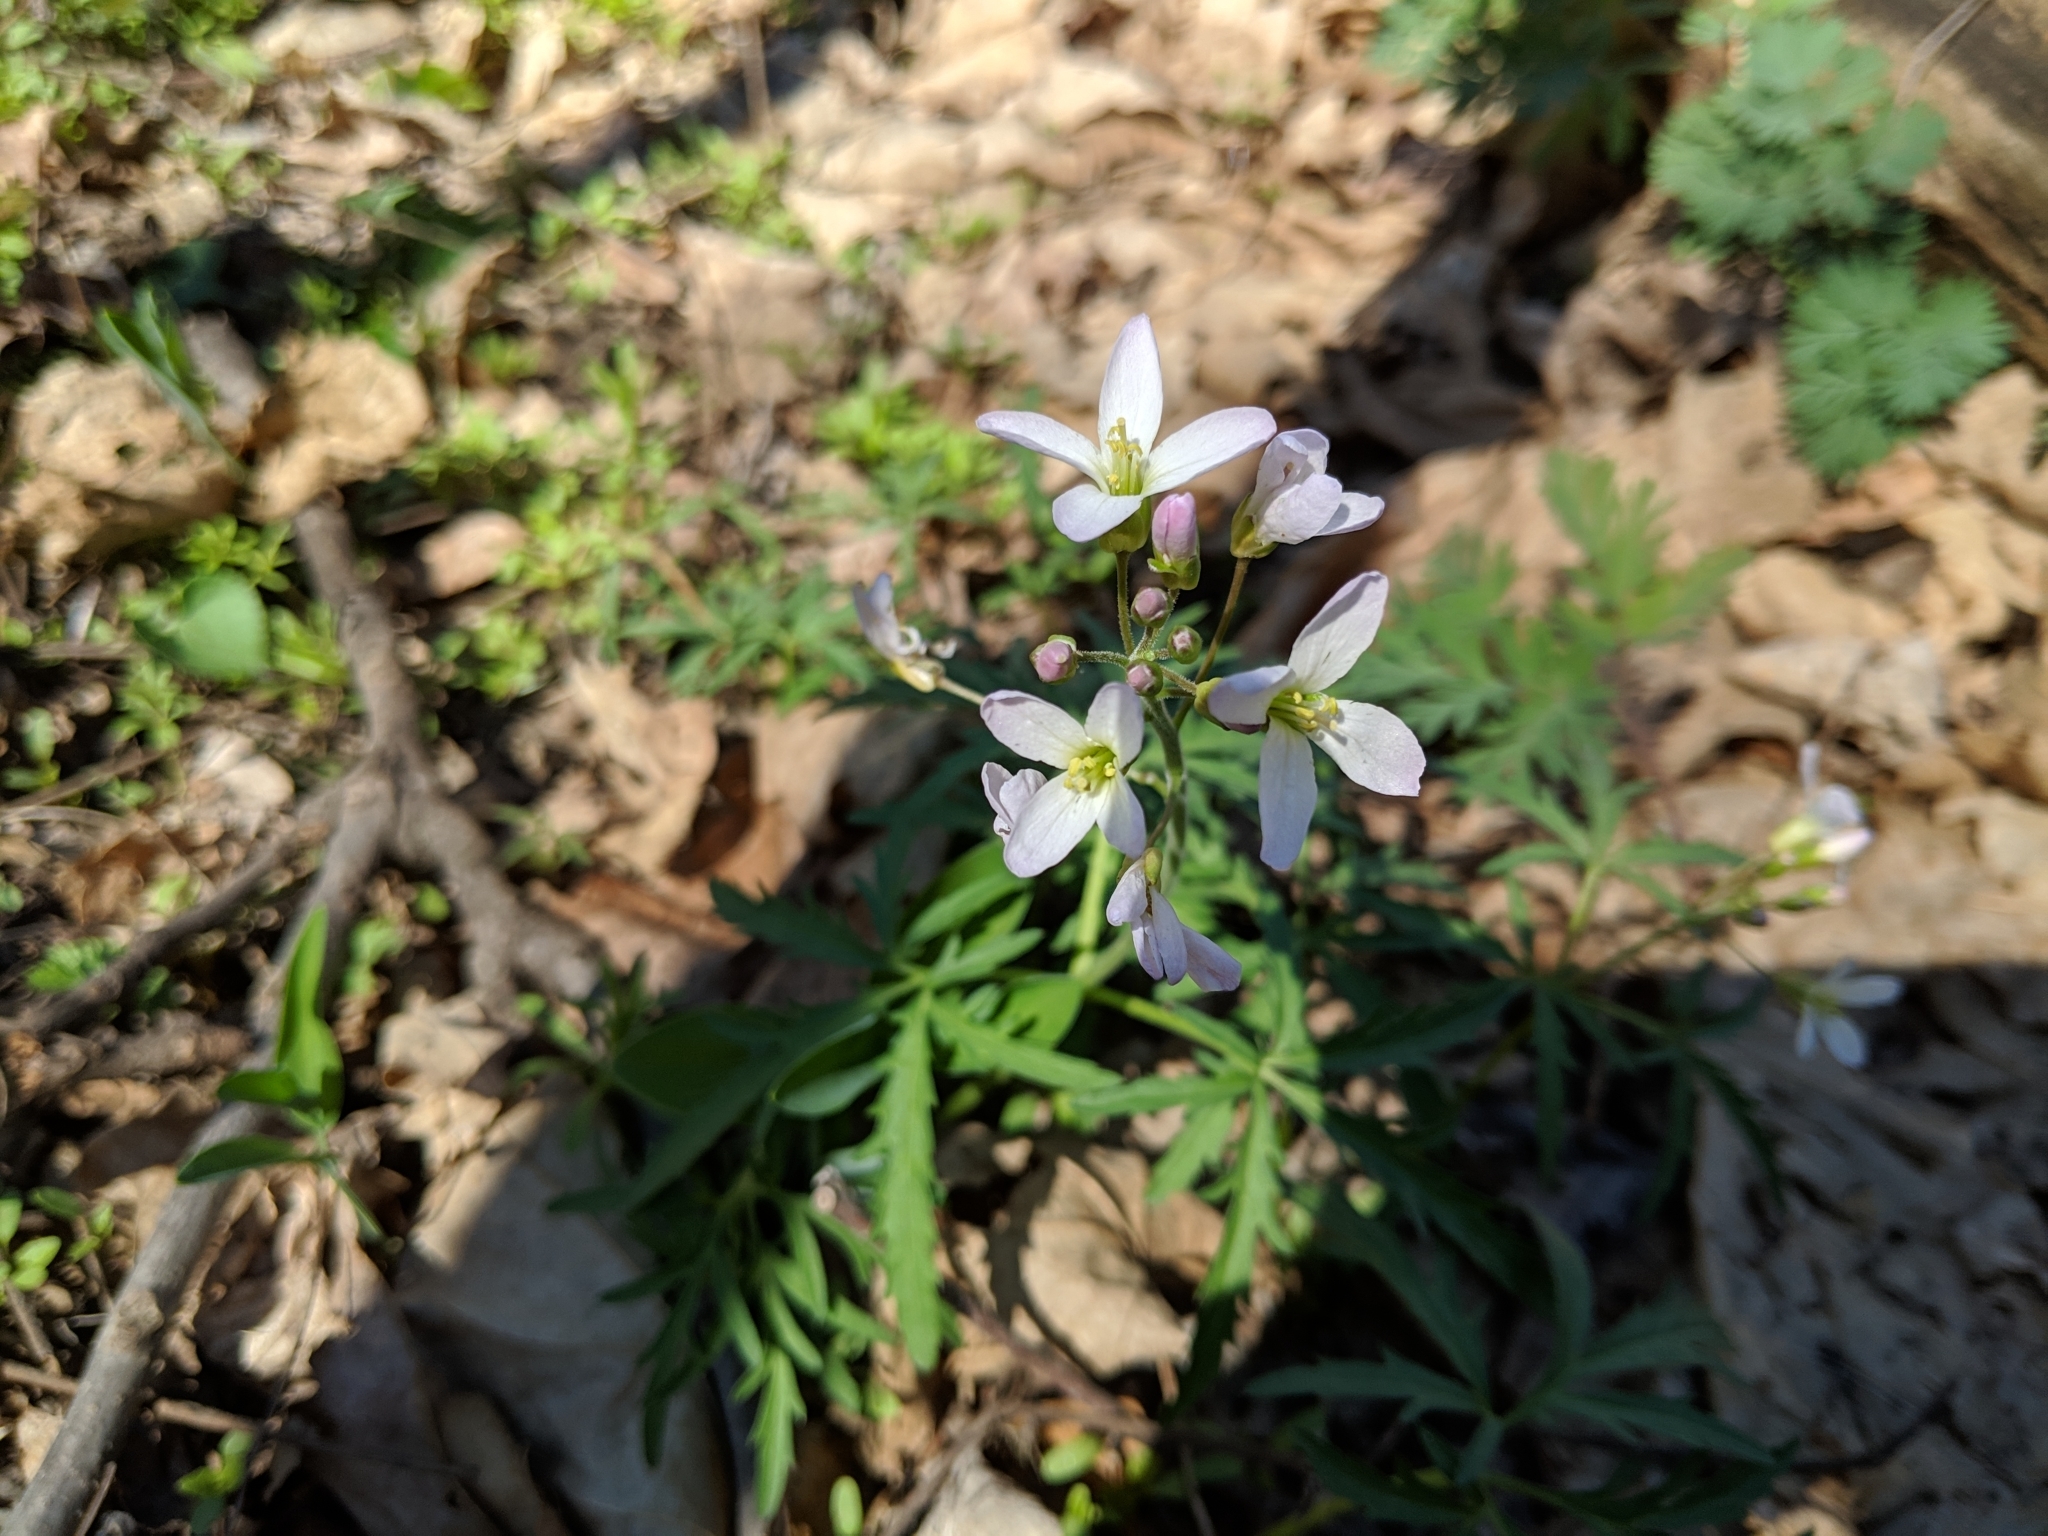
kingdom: Plantae
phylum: Tracheophyta
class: Magnoliopsida
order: Brassicales
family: Brassicaceae
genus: Cardamine
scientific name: Cardamine concatenata
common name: Cut-leaf toothcup
